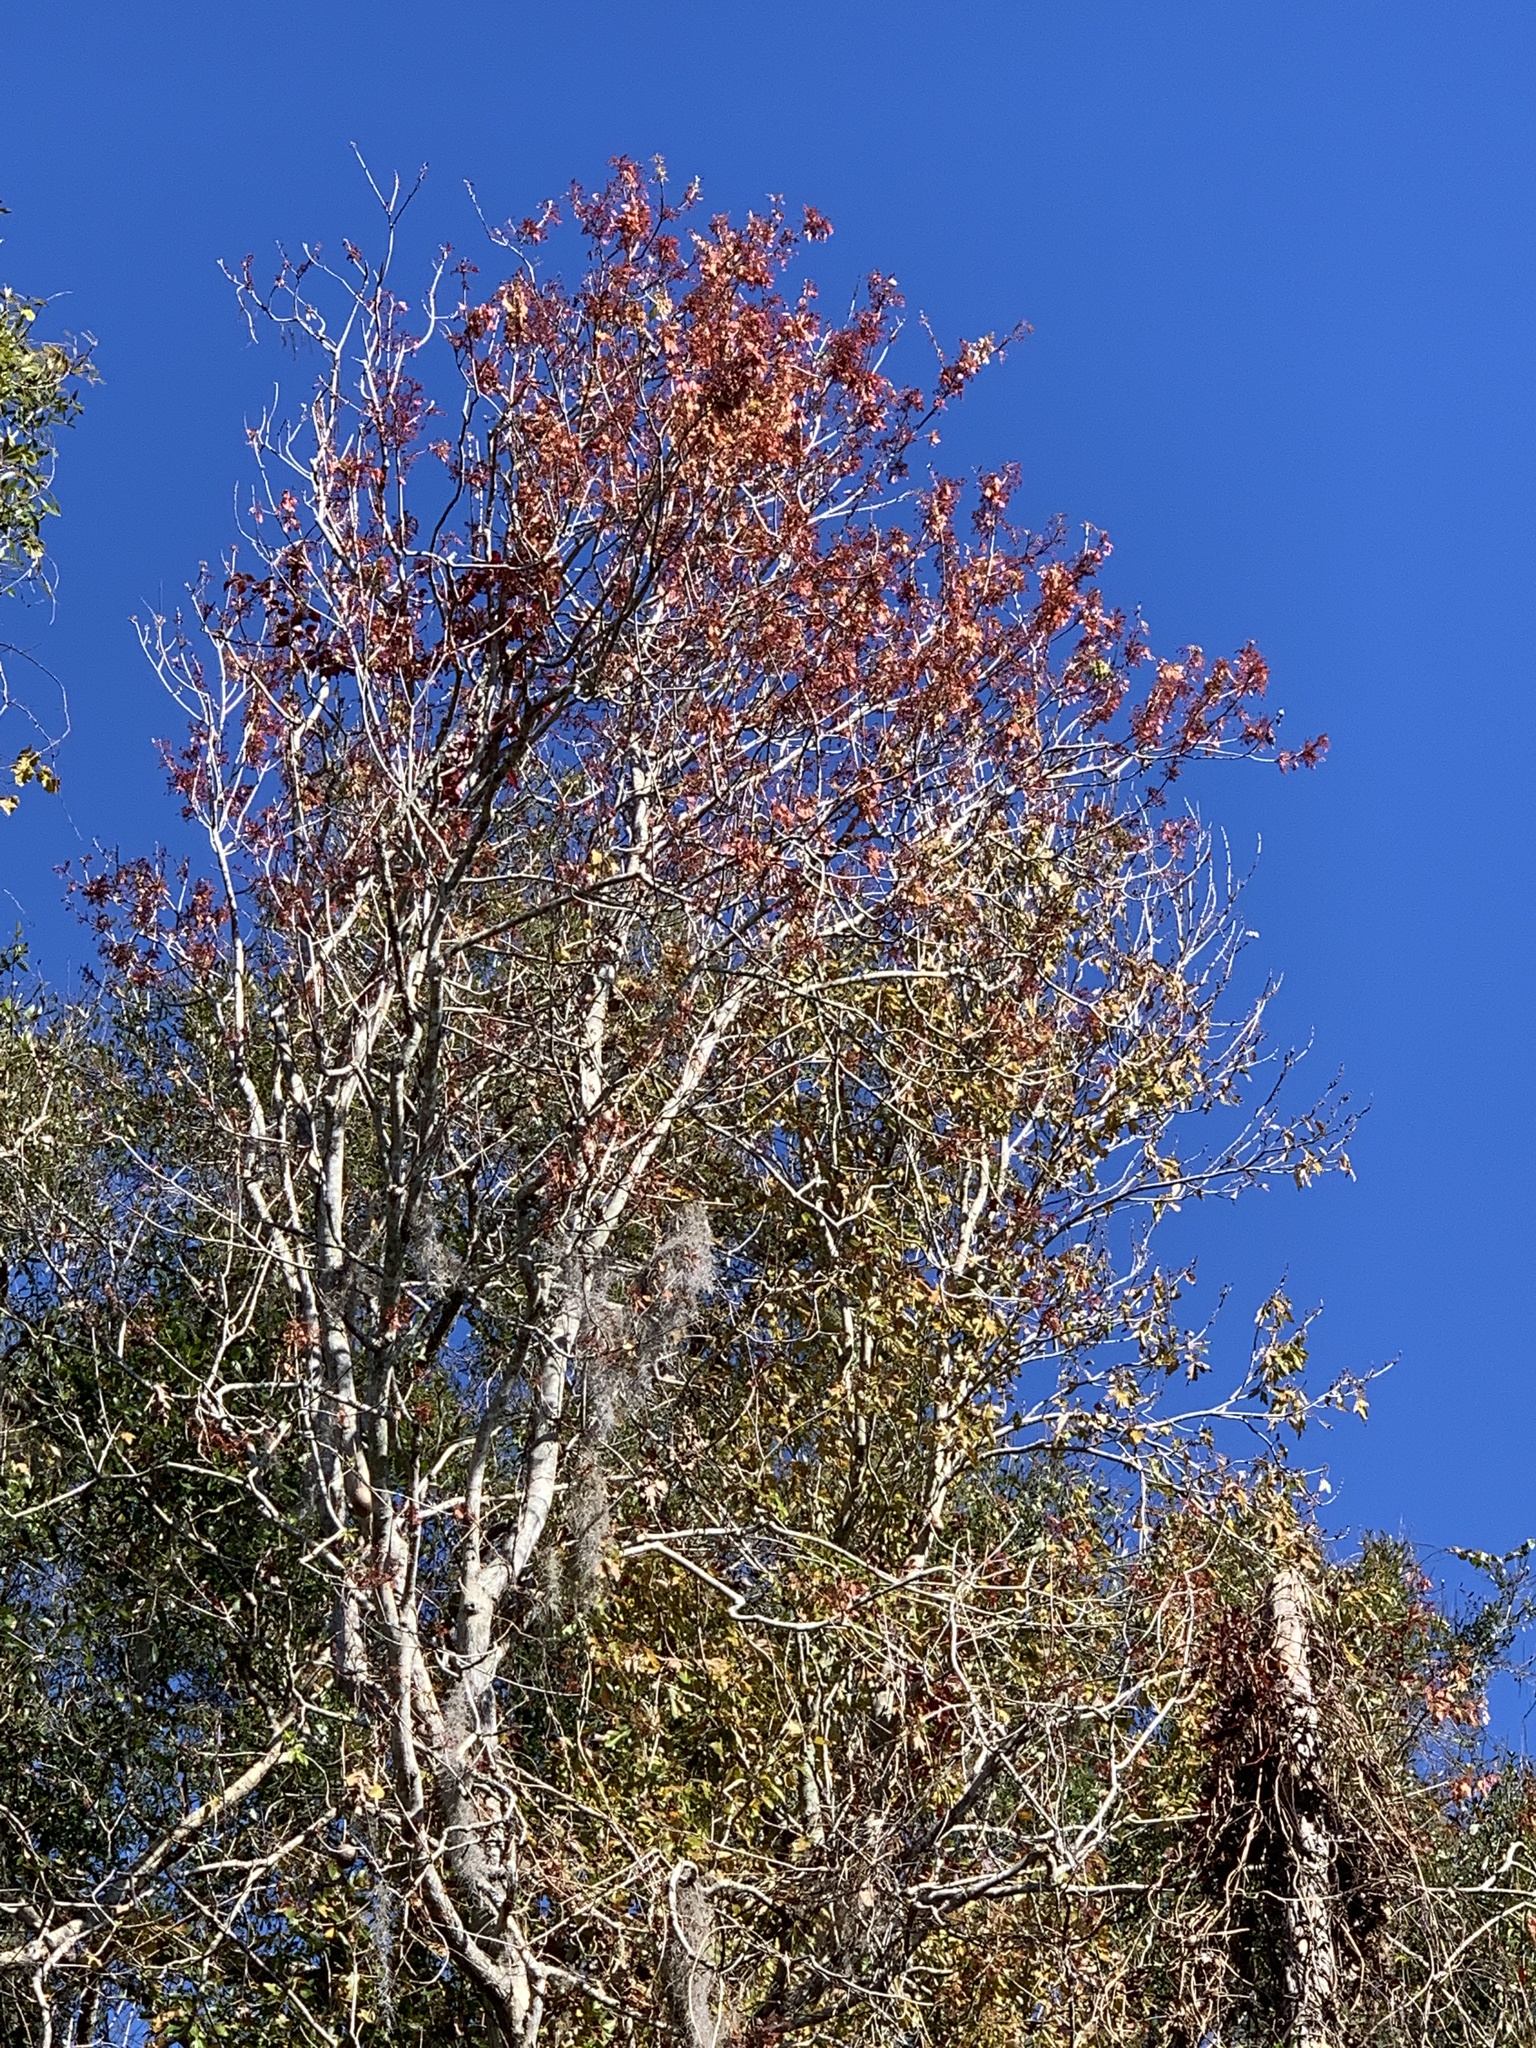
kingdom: Plantae
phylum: Tracheophyta
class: Magnoliopsida
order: Sapindales
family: Sapindaceae
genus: Acer
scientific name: Acer rubrum
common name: Red maple
